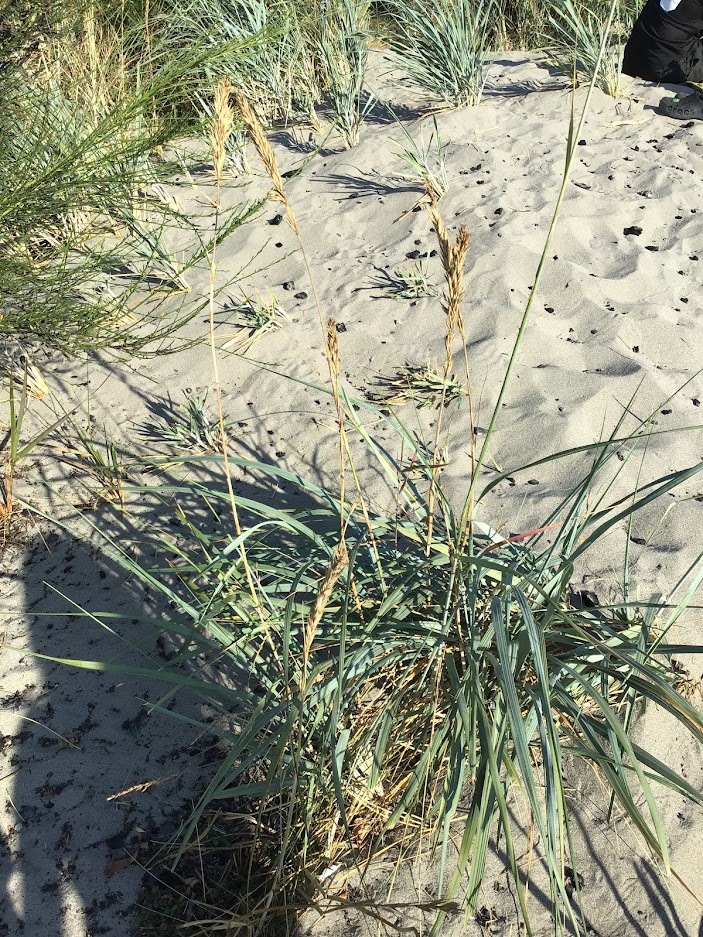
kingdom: Plantae
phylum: Tracheophyta
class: Liliopsida
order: Poales
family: Poaceae
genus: Leymus
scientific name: Leymus mollis
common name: American dune grass
